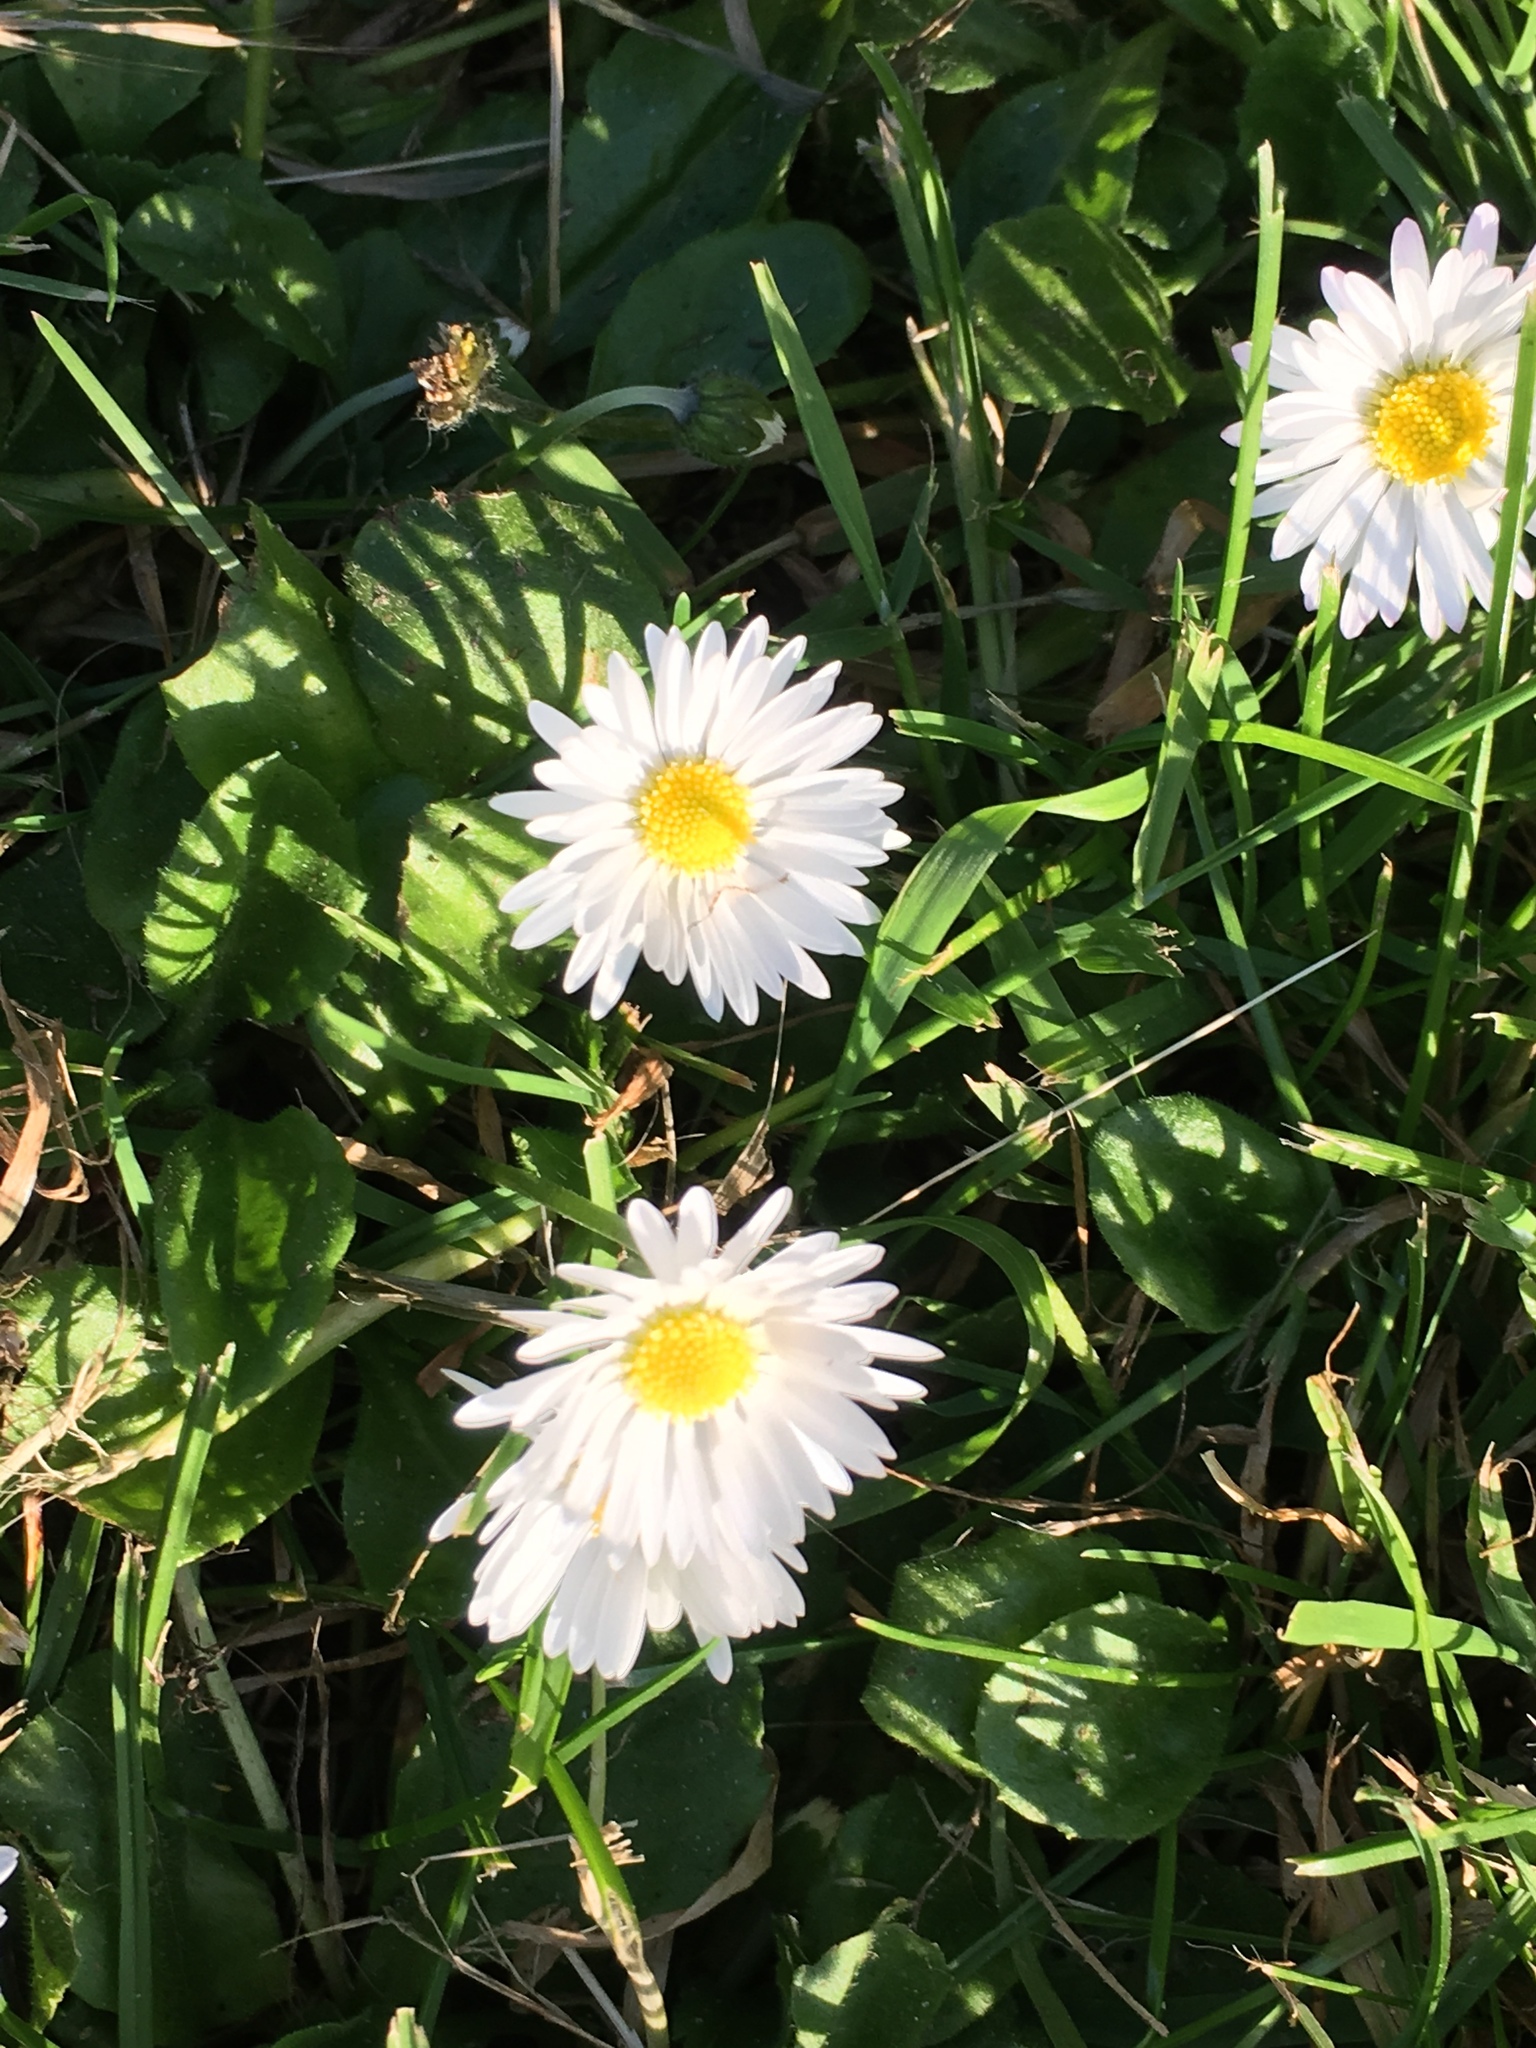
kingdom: Plantae
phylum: Tracheophyta
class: Magnoliopsida
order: Asterales
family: Asteraceae
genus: Bellis
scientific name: Bellis perennis
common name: Lawndaisy
